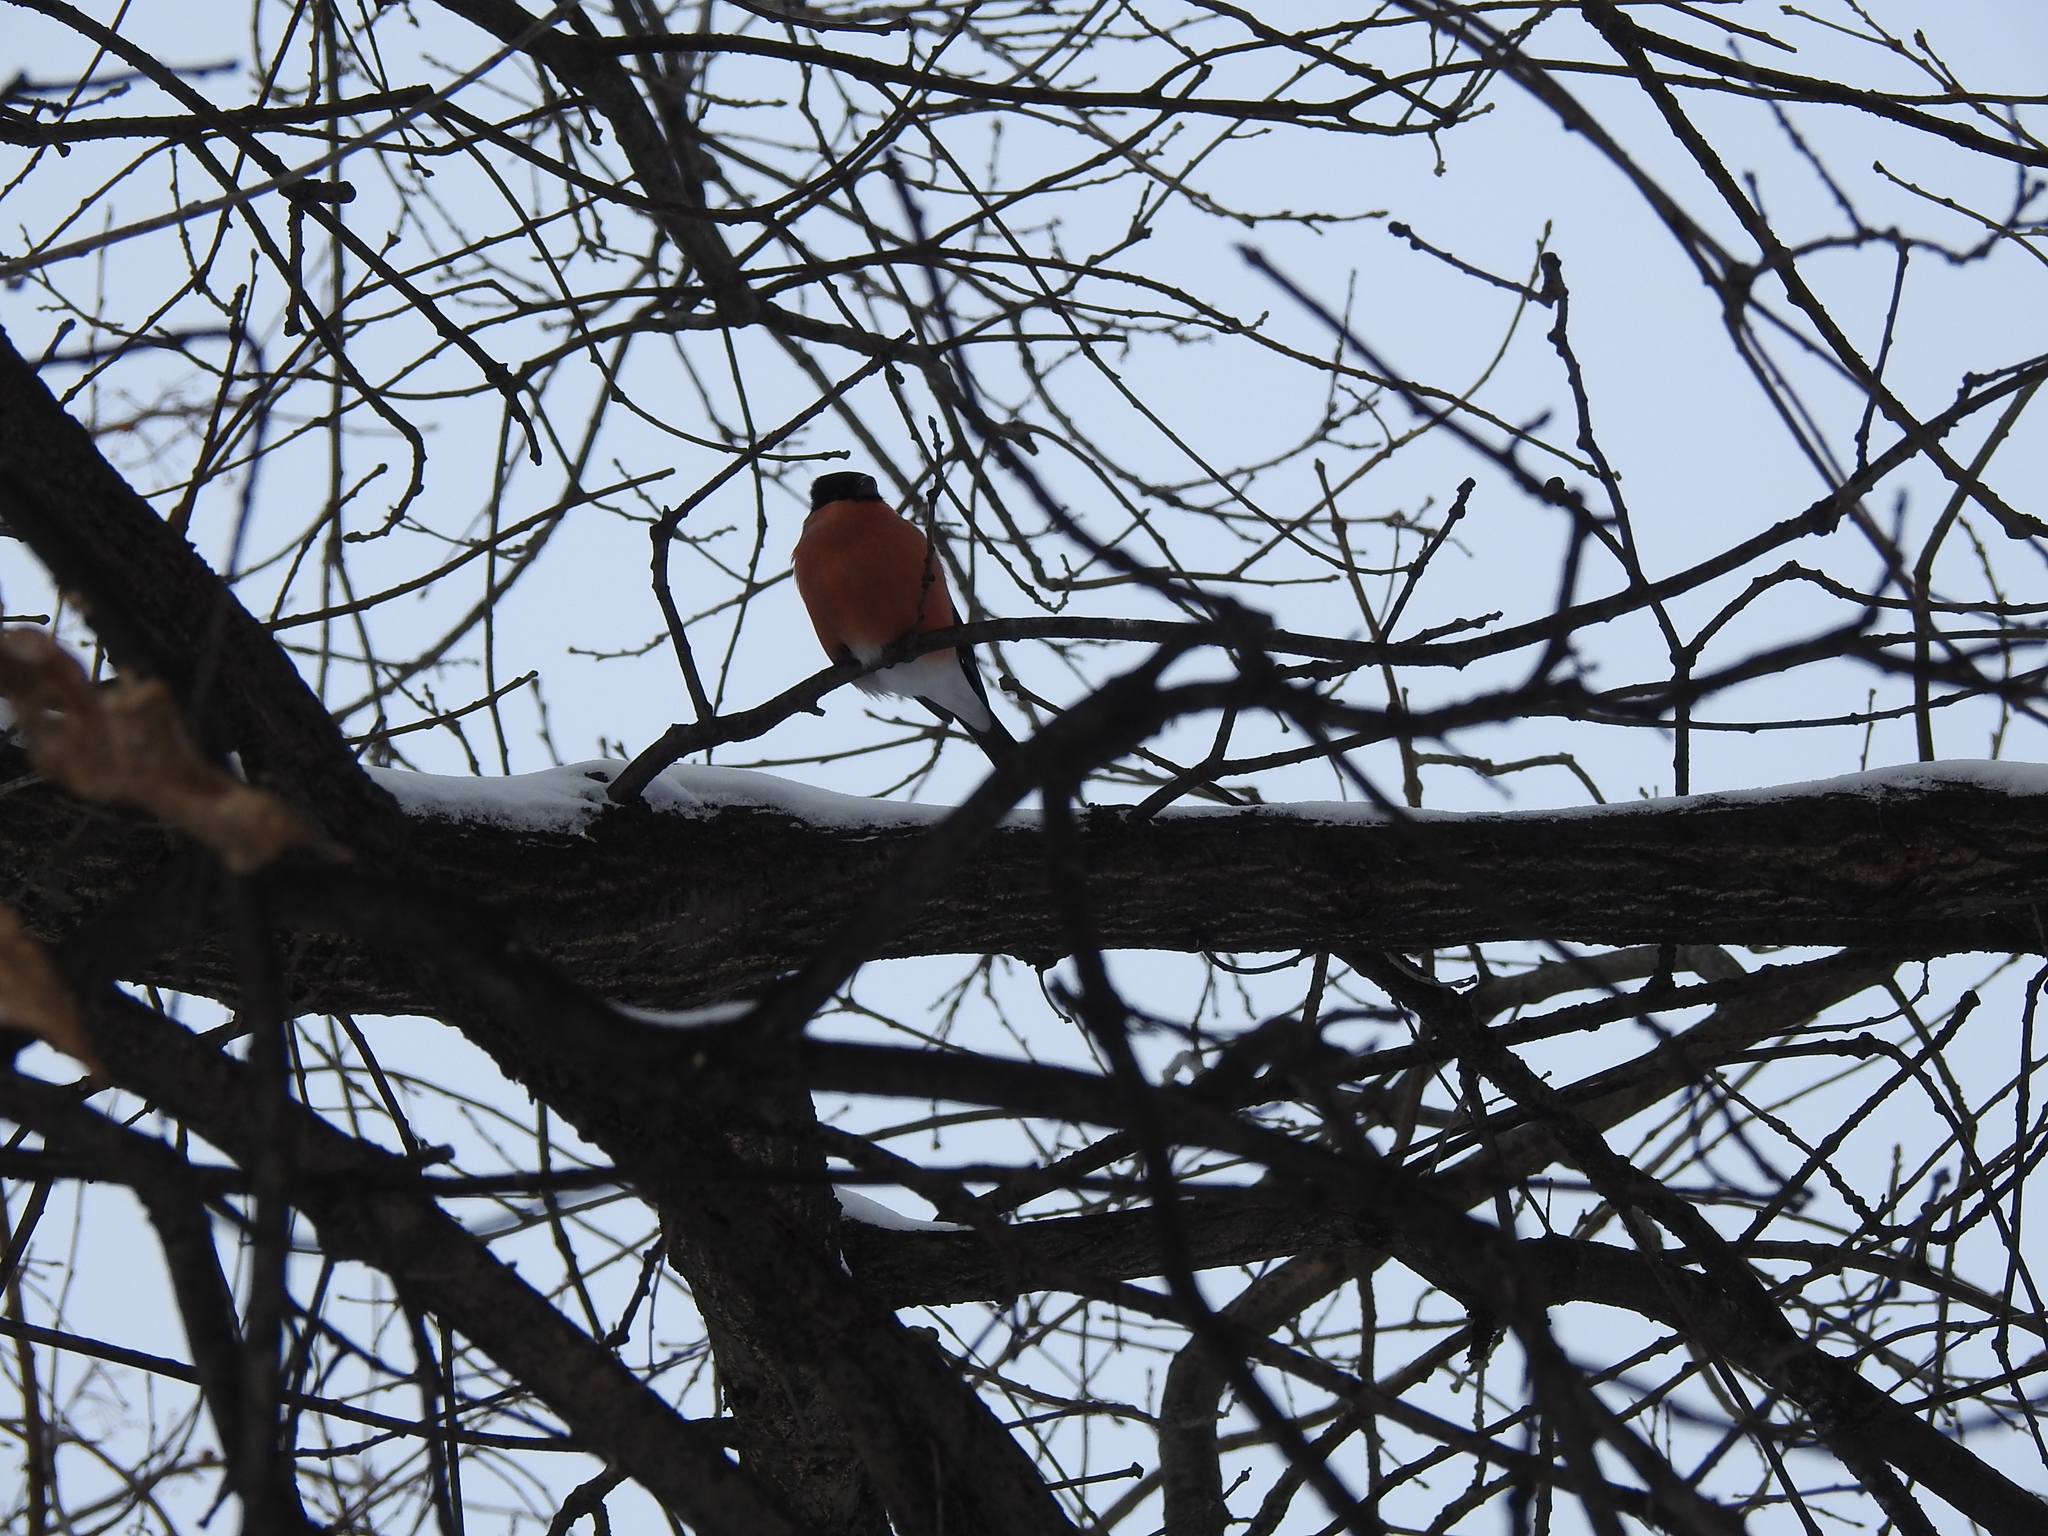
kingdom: Animalia
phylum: Chordata
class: Aves
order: Passeriformes
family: Fringillidae
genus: Pyrrhula
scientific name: Pyrrhula pyrrhula
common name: Eurasian bullfinch
